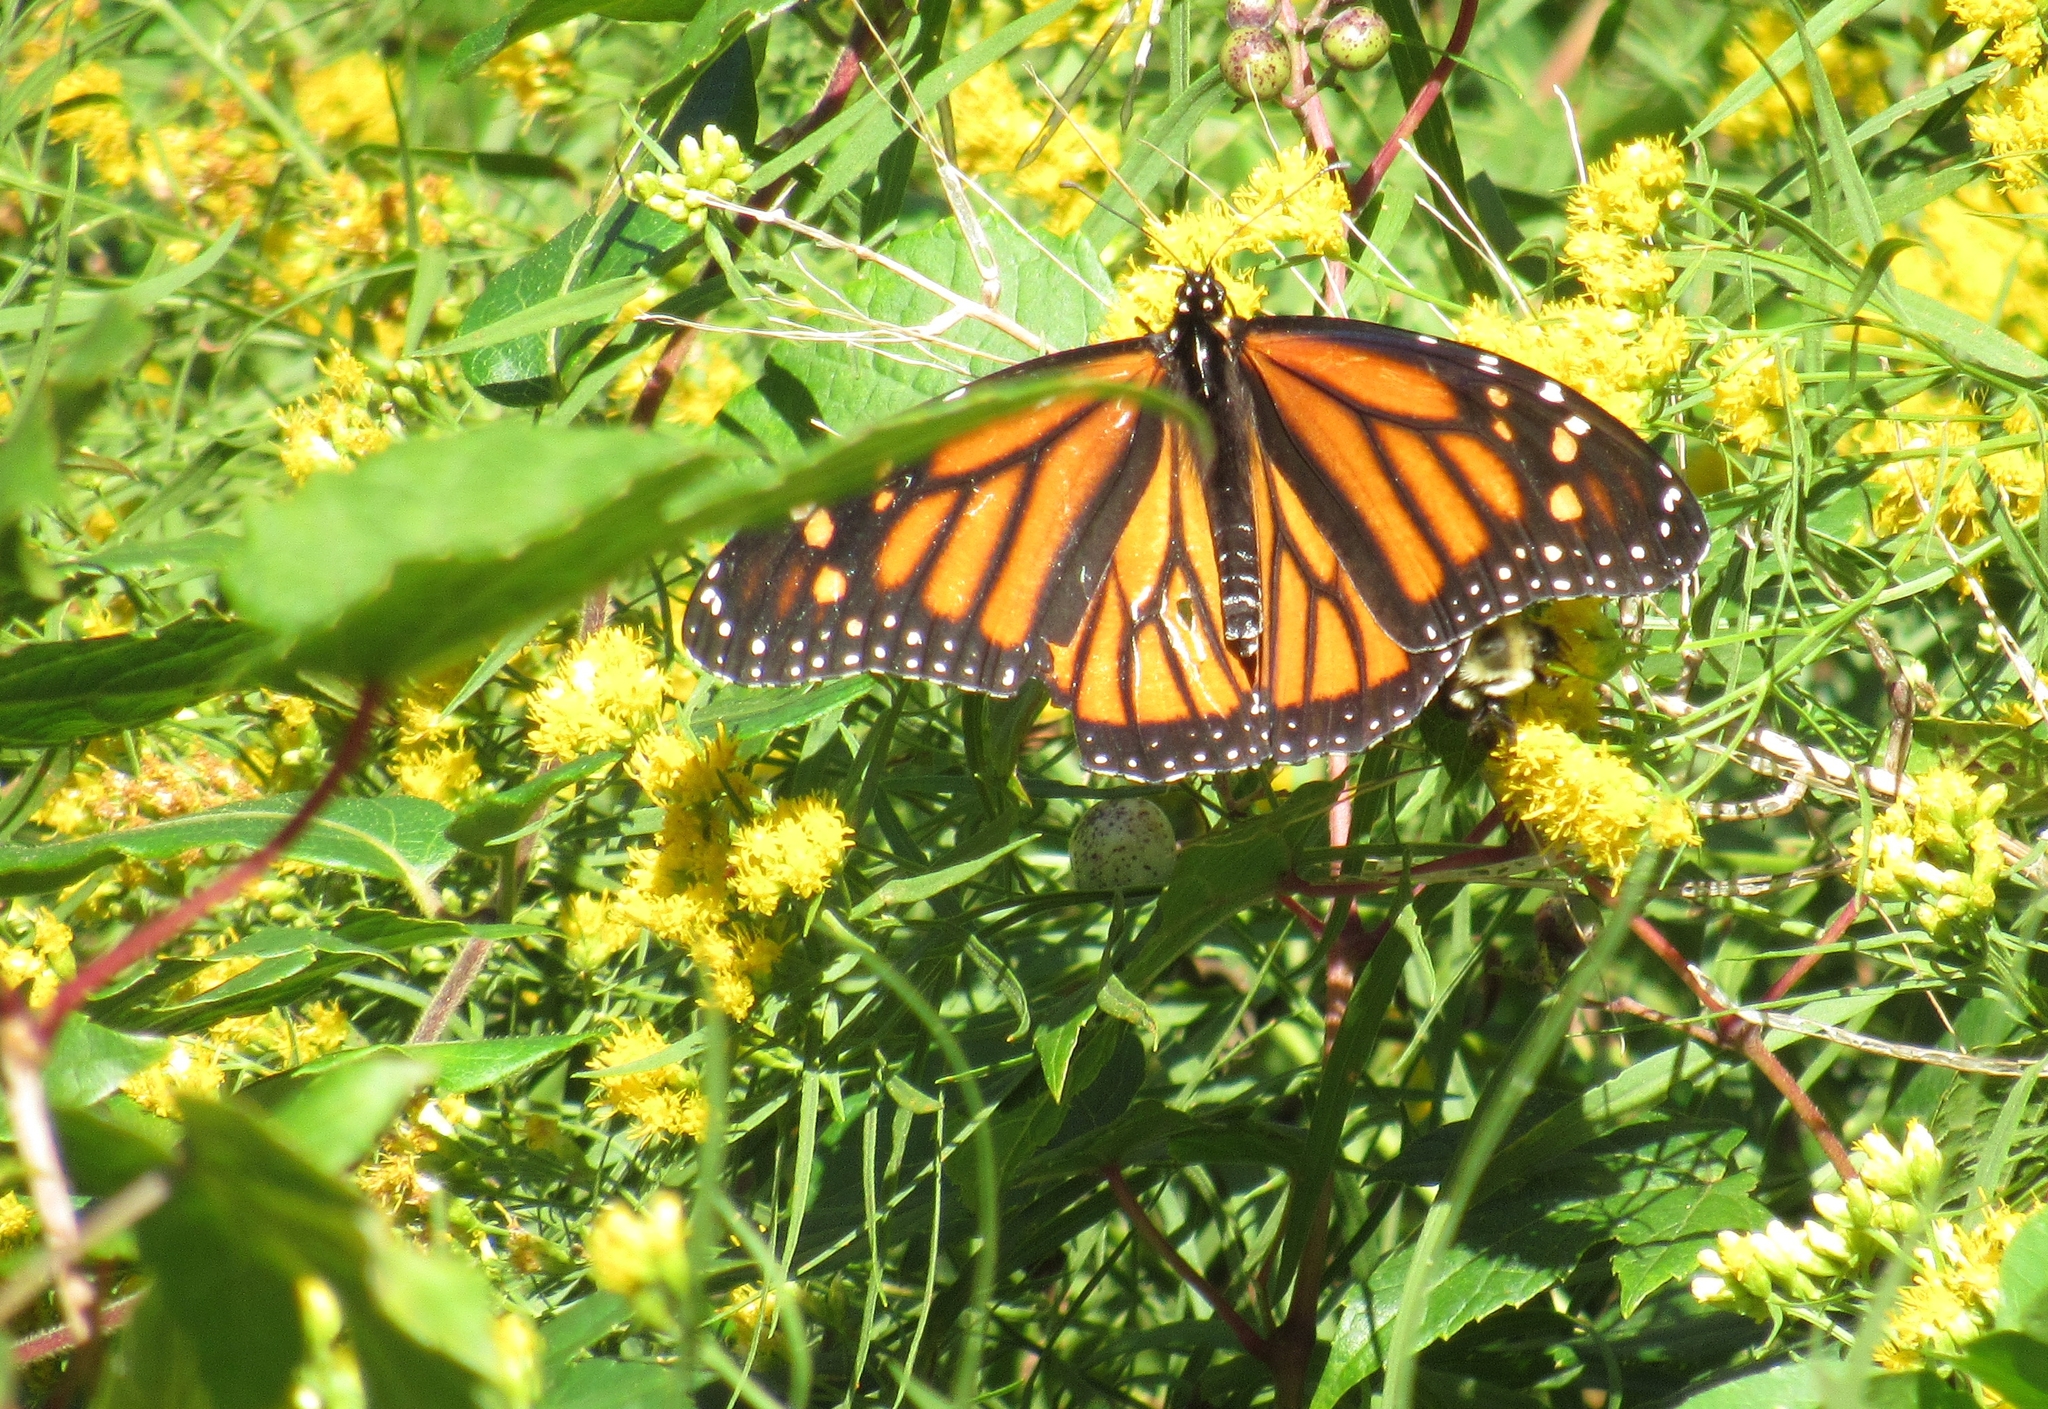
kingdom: Animalia
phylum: Arthropoda
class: Insecta
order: Lepidoptera
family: Nymphalidae
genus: Danaus
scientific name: Danaus plexippus
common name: Monarch
